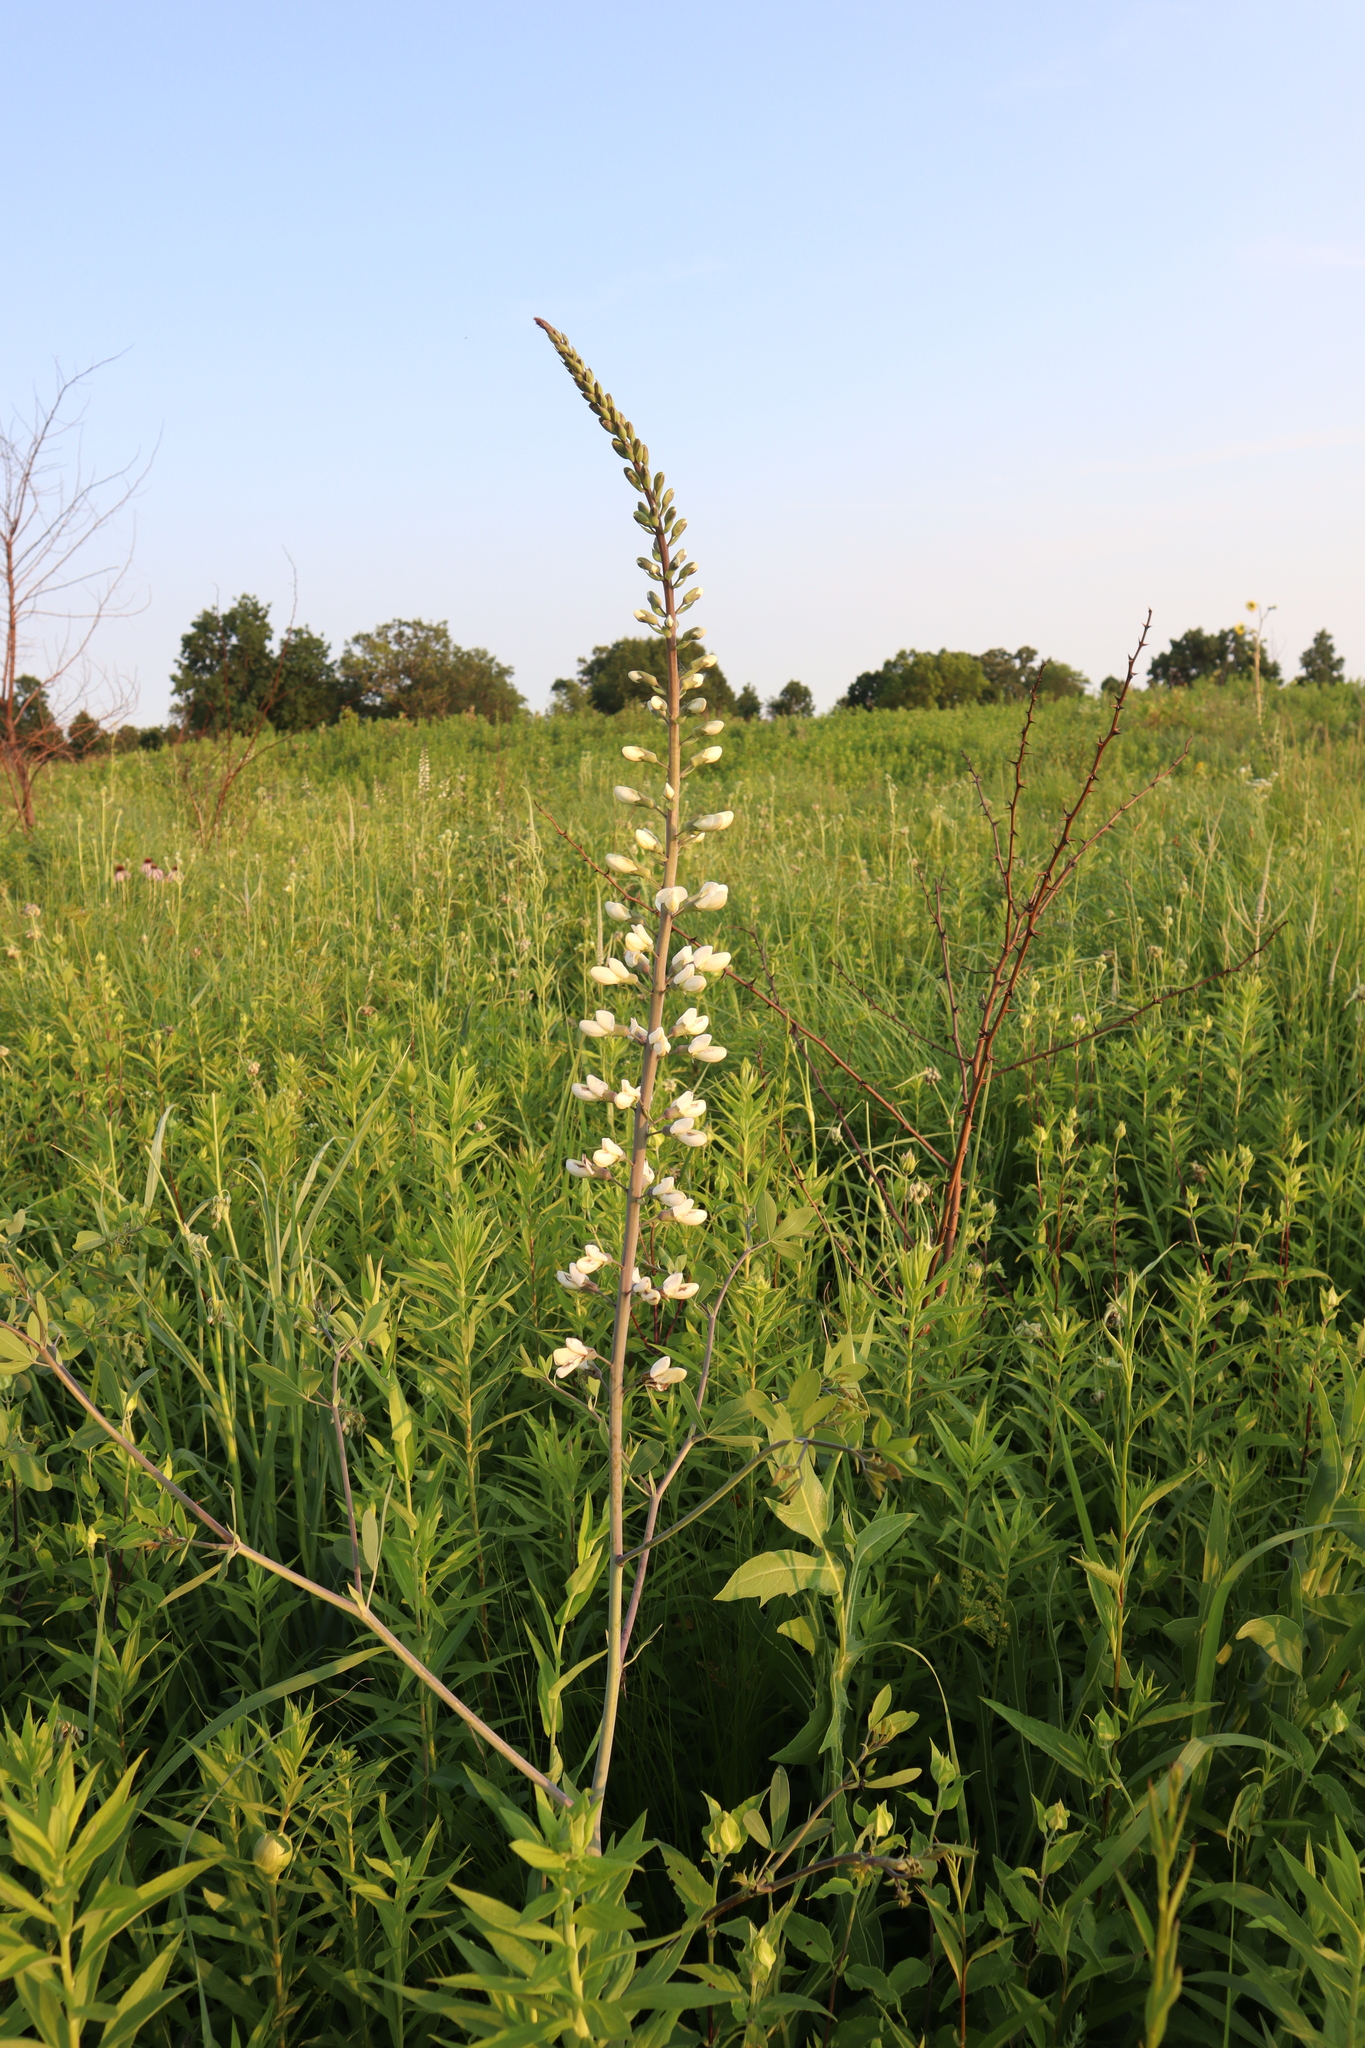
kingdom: Plantae
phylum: Tracheophyta
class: Magnoliopsida
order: Fabales
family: Fabaceae
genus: Baptisia
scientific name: Baptisia alba
